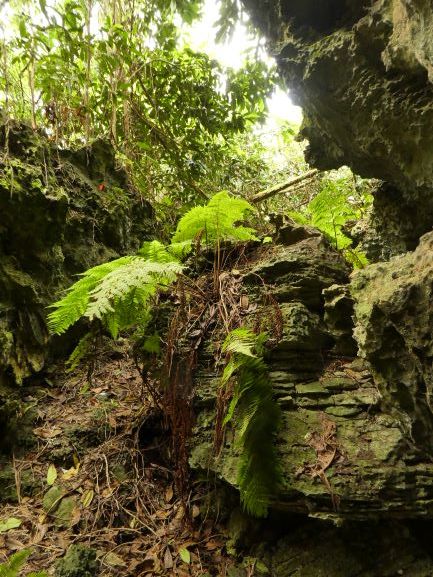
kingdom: Plantae
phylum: Tracheophyta
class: Polypodiopsida
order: Polypodiales
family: Dryopteridaceae
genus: Ctenitis
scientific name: Ctenitis sloanei
